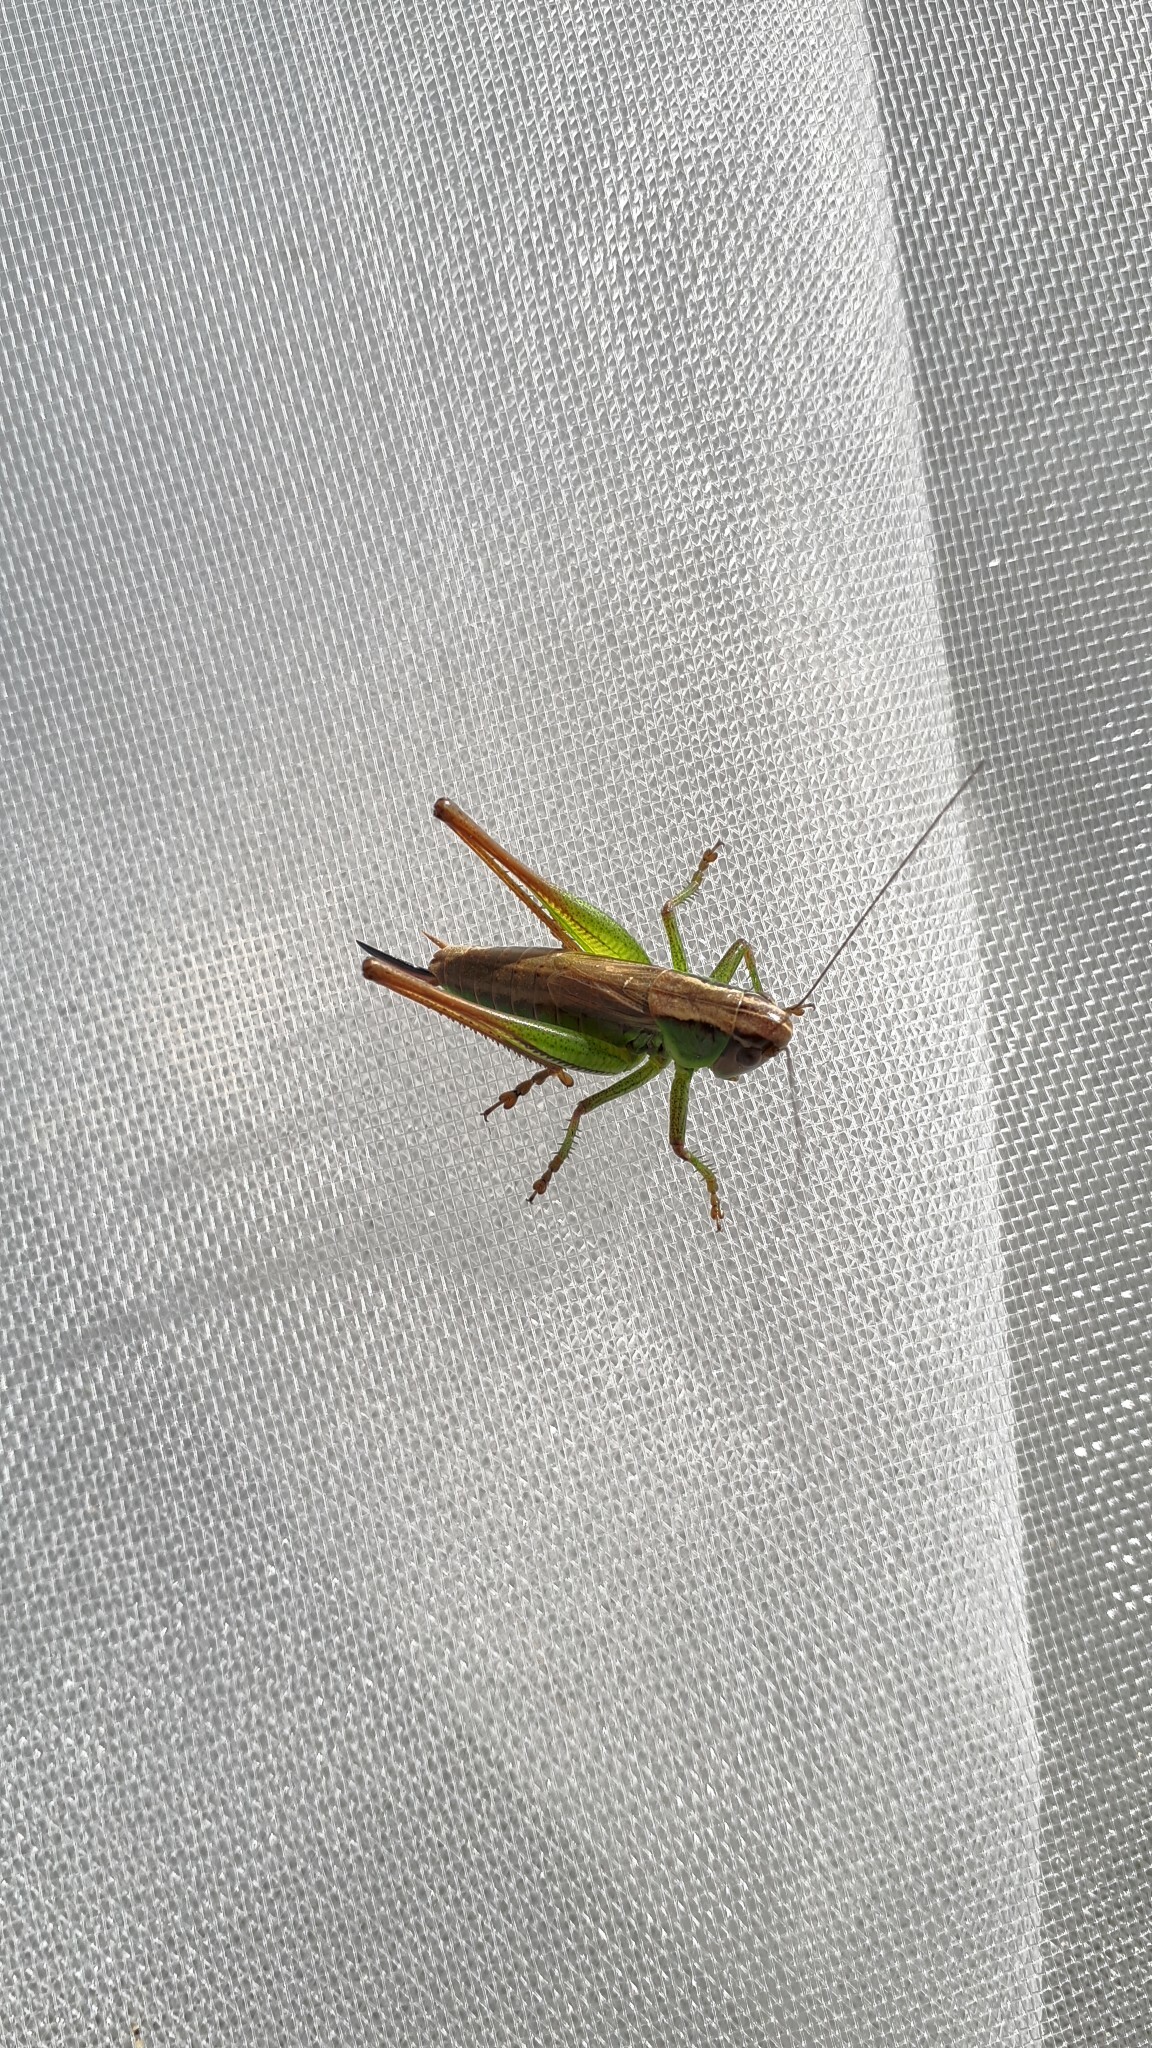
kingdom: Animalia
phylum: Arthropoda
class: Insecta
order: Orthoptera
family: Tettigoniidae
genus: Roeseliana
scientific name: Roeseliana roeselii
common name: Roesel's bush cricket
